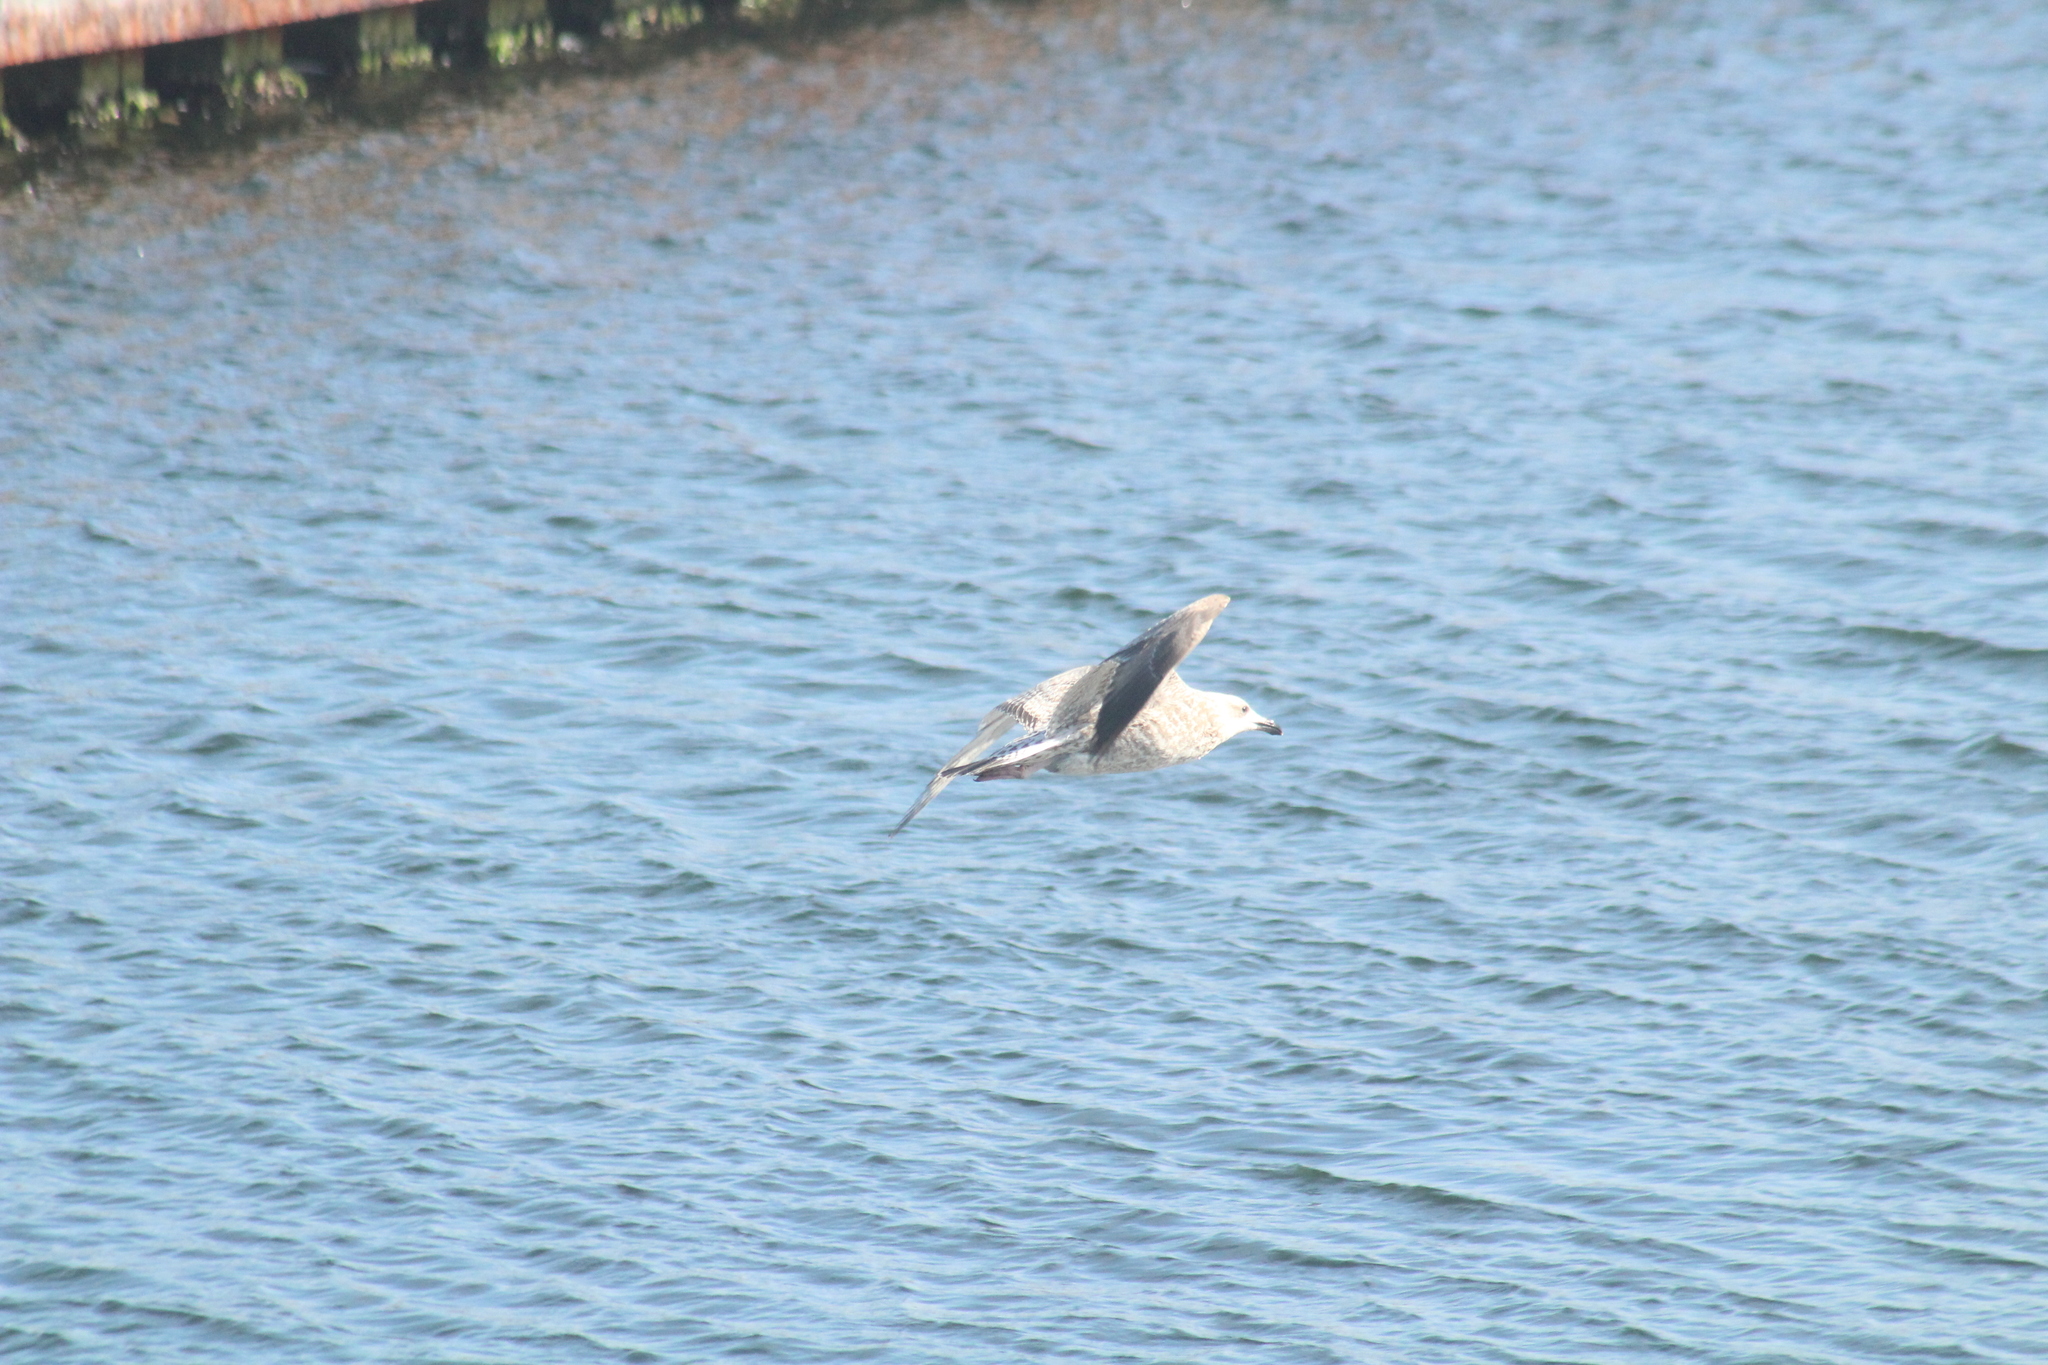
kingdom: Animalia
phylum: Chordata
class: Aves
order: Charadriiformes
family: Laridae
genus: Larus
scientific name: Larus argentatus
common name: Herring gull
